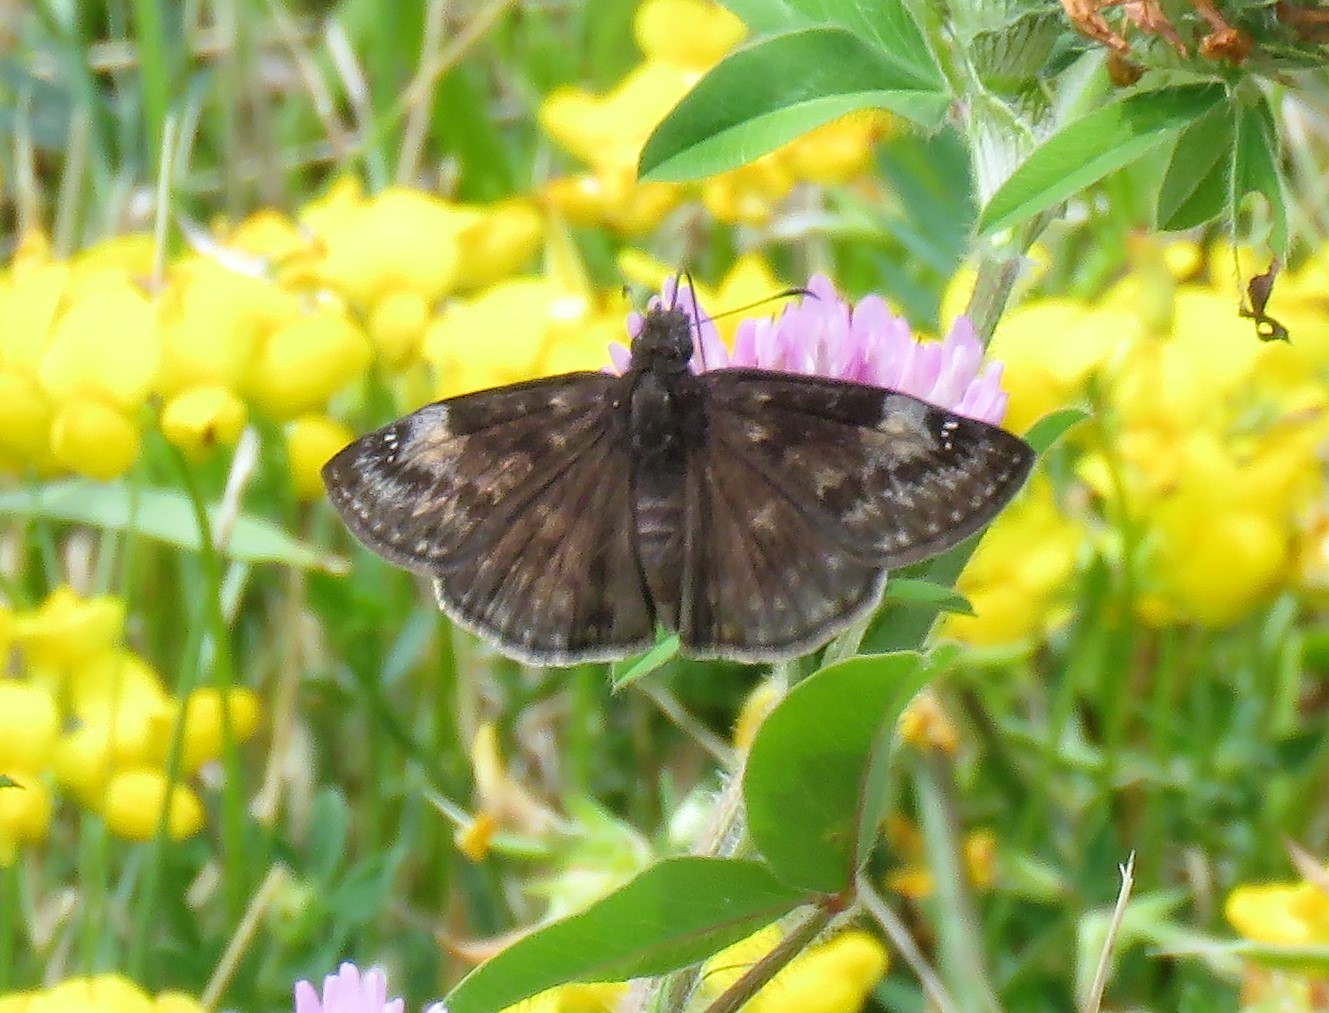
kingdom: Animalia
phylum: Arthropoda
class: Insecta
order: Lepidoptera
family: Hesperiidae
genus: Erynnis
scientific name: Erynnis baptisiae
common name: Wild indigo duskywing
